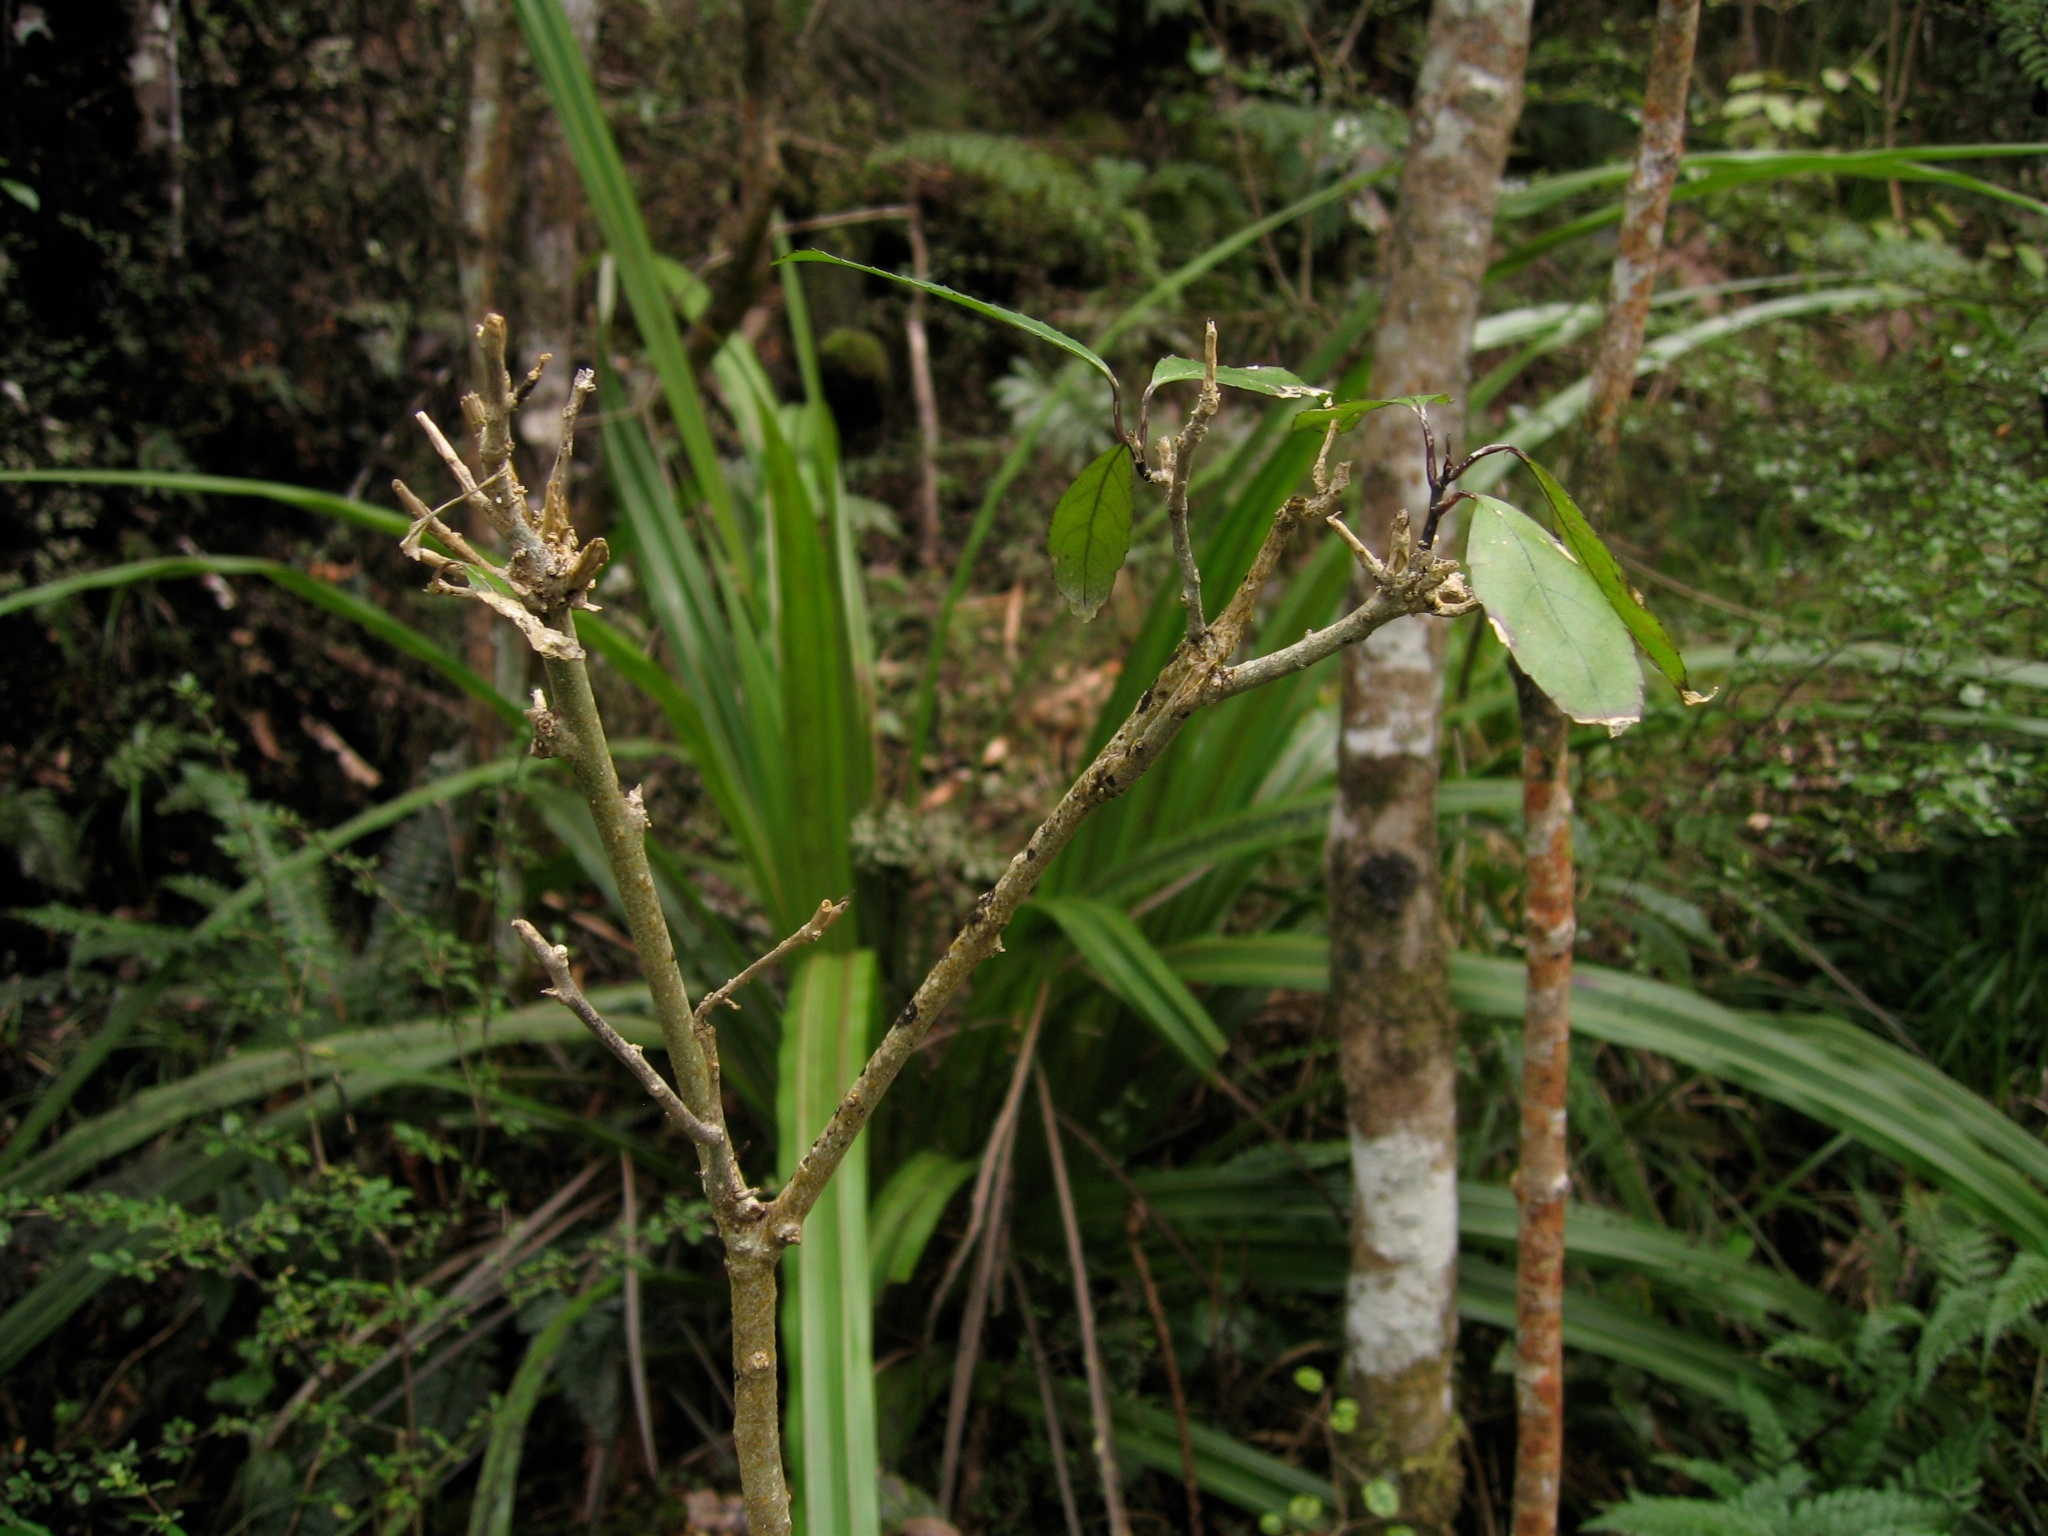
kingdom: Plantae
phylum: Tracheophyta
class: Magnoliopsida
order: Malpighiales
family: Violaceae
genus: Melicytus
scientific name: Melicytus ramiflorus
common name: Mahoe
